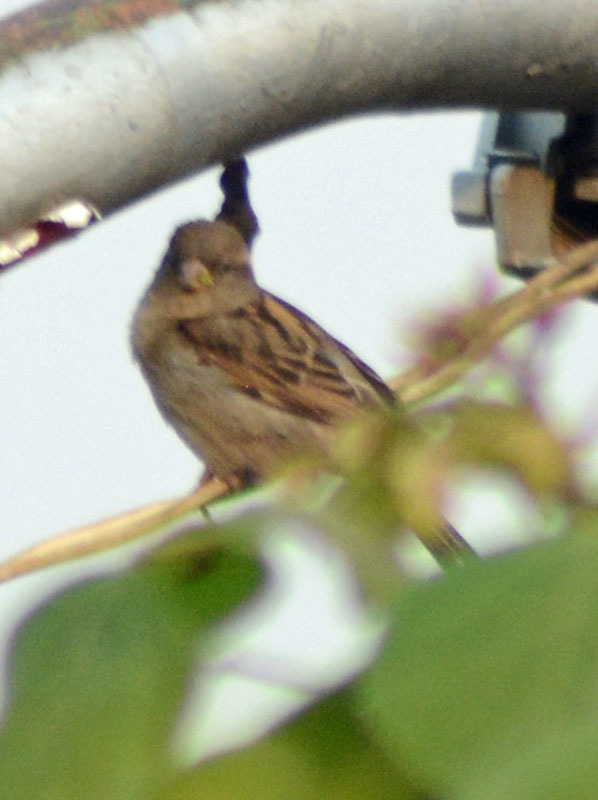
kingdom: Animalia
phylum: Chordata
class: Aves
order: Passeriformes
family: Passeridae
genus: Passer
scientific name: Passer domesticus
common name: House sparrow
